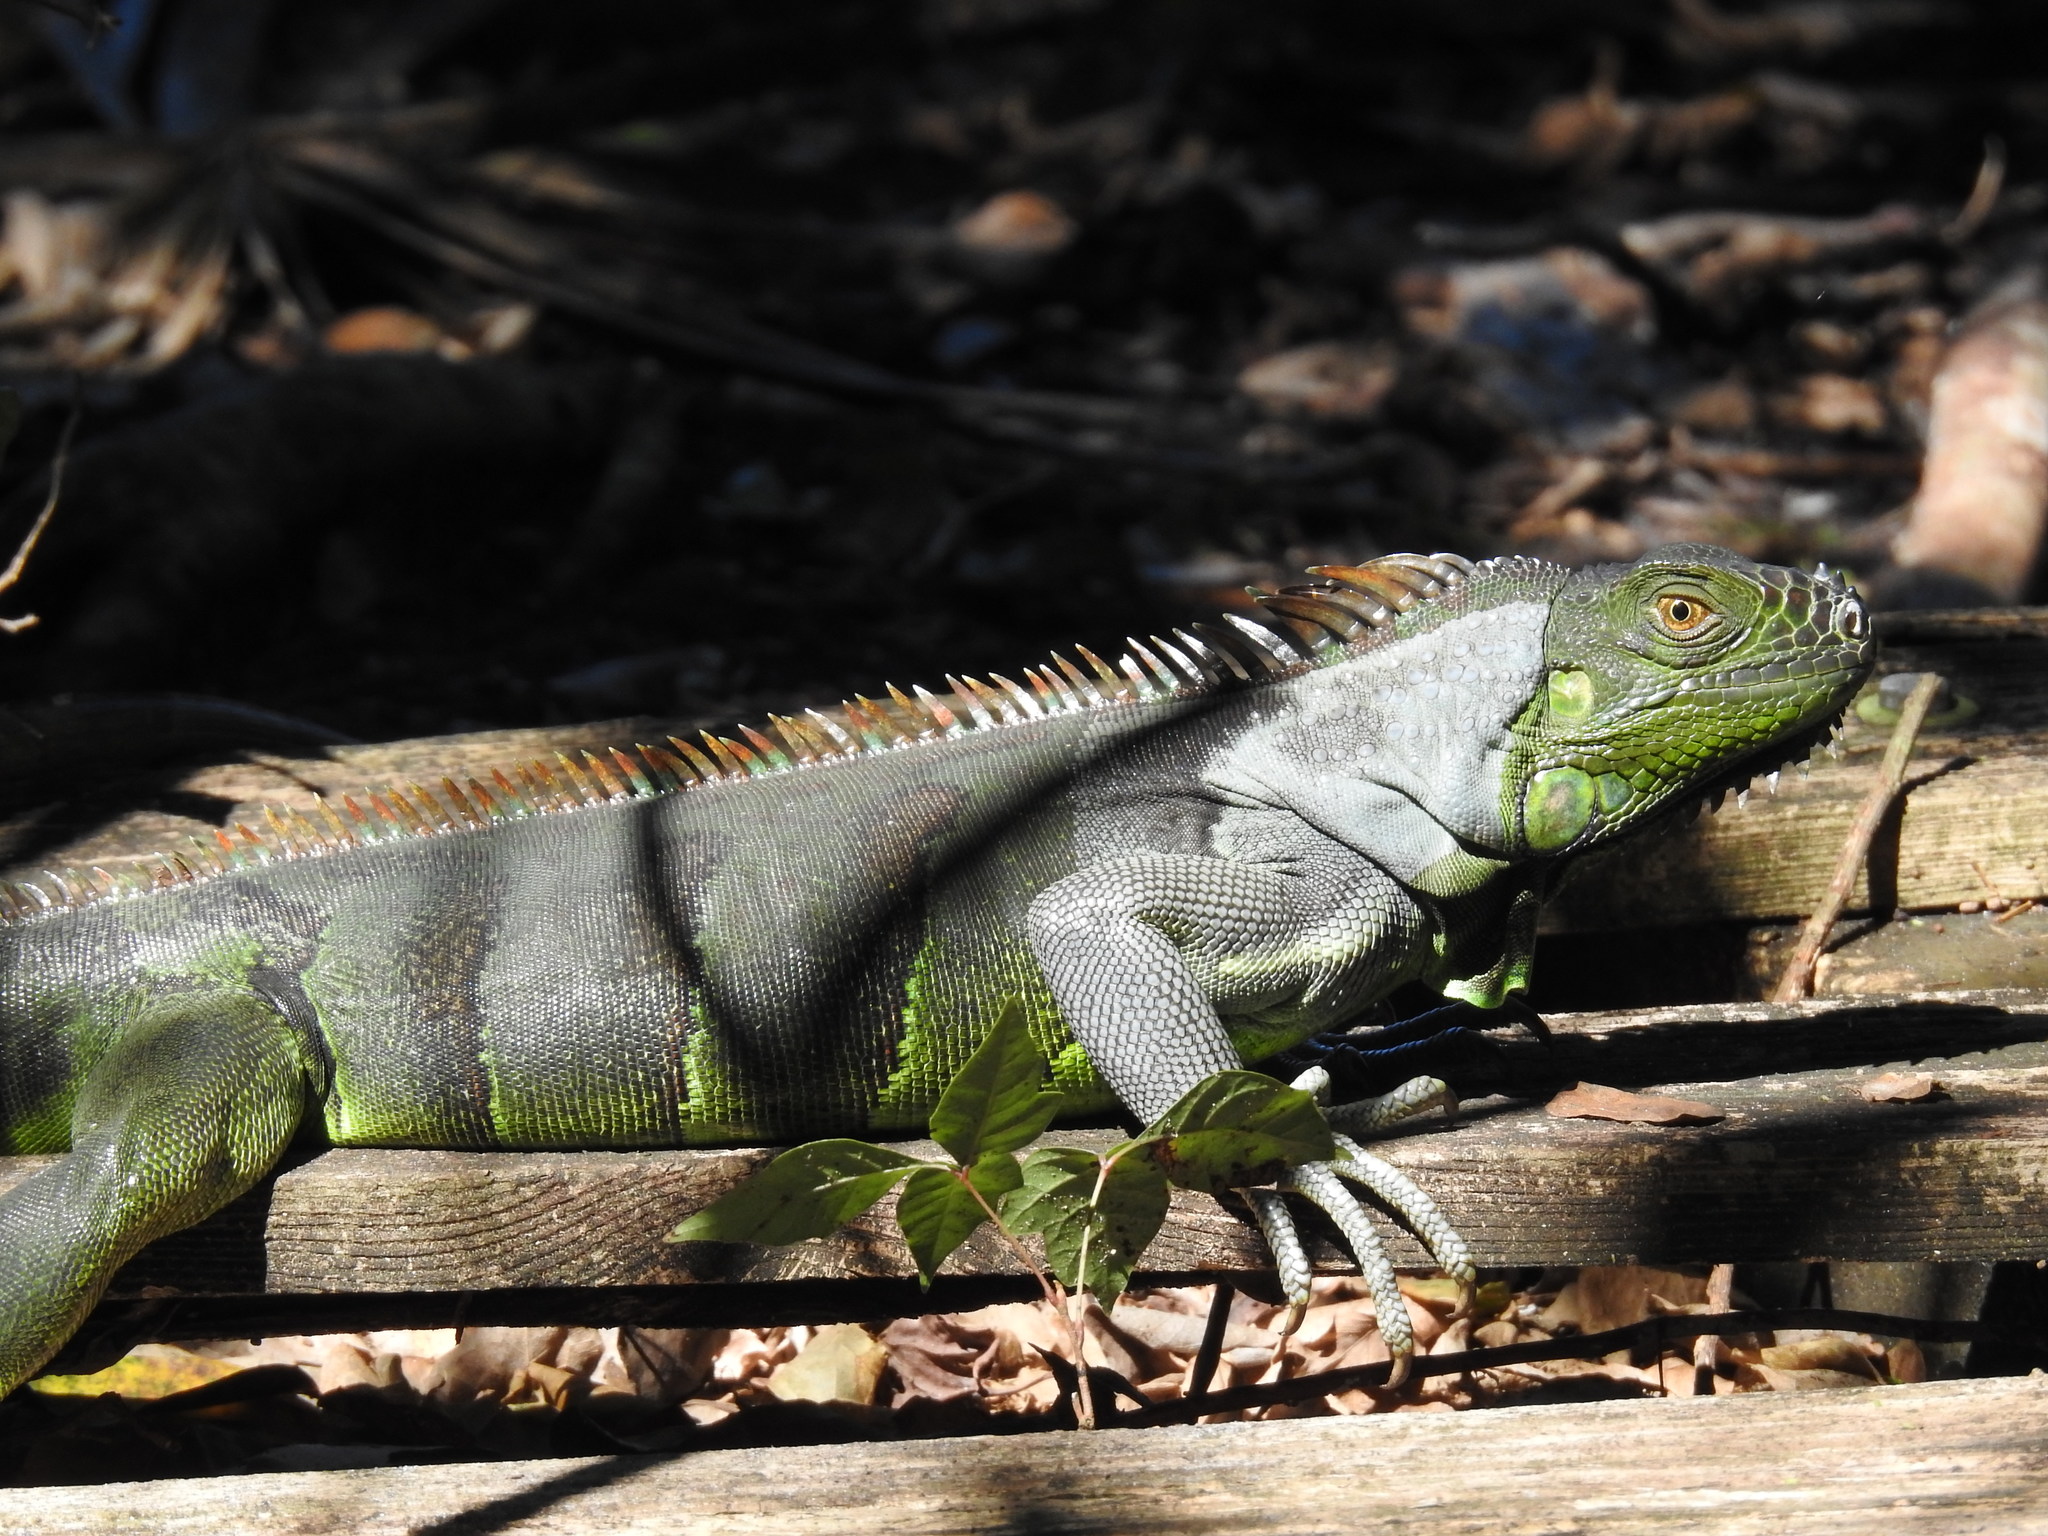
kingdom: Animalia
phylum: Chordata
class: Squamata
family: Iguanidae
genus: Iguana
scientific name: Iguana iguana
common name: Green iguana
